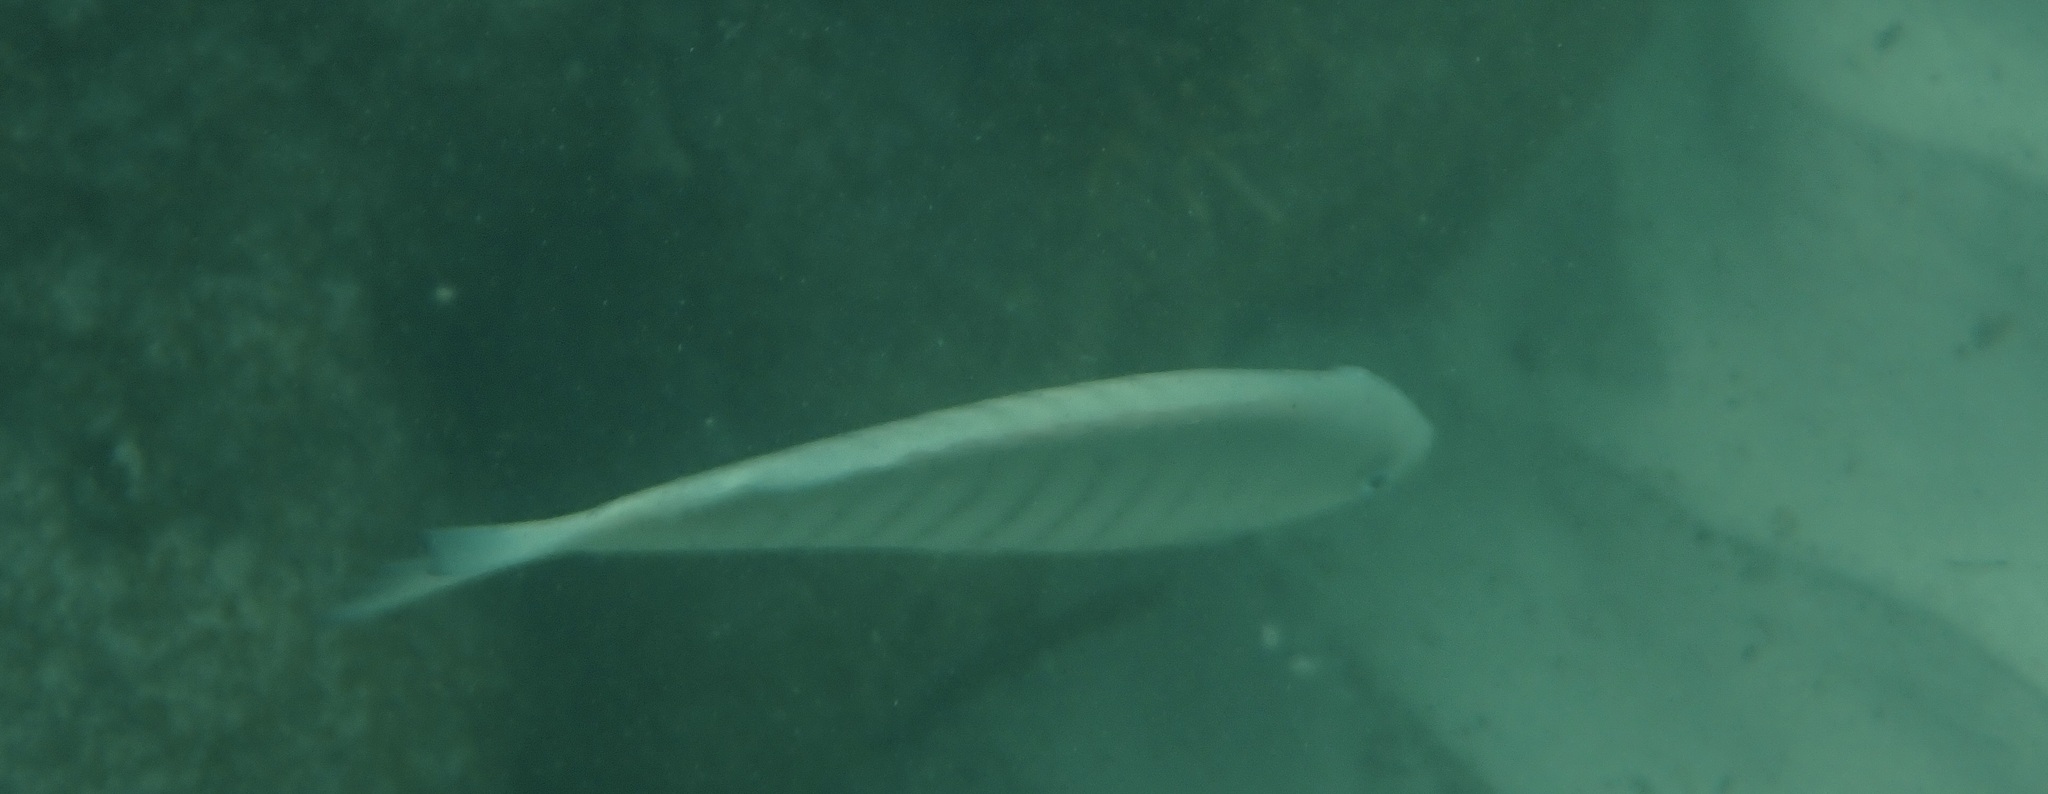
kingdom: Animalia
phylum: Chordata
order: Perciformes
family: Kyphosidae
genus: Girella
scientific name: Girella tricuspidata
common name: Parore
